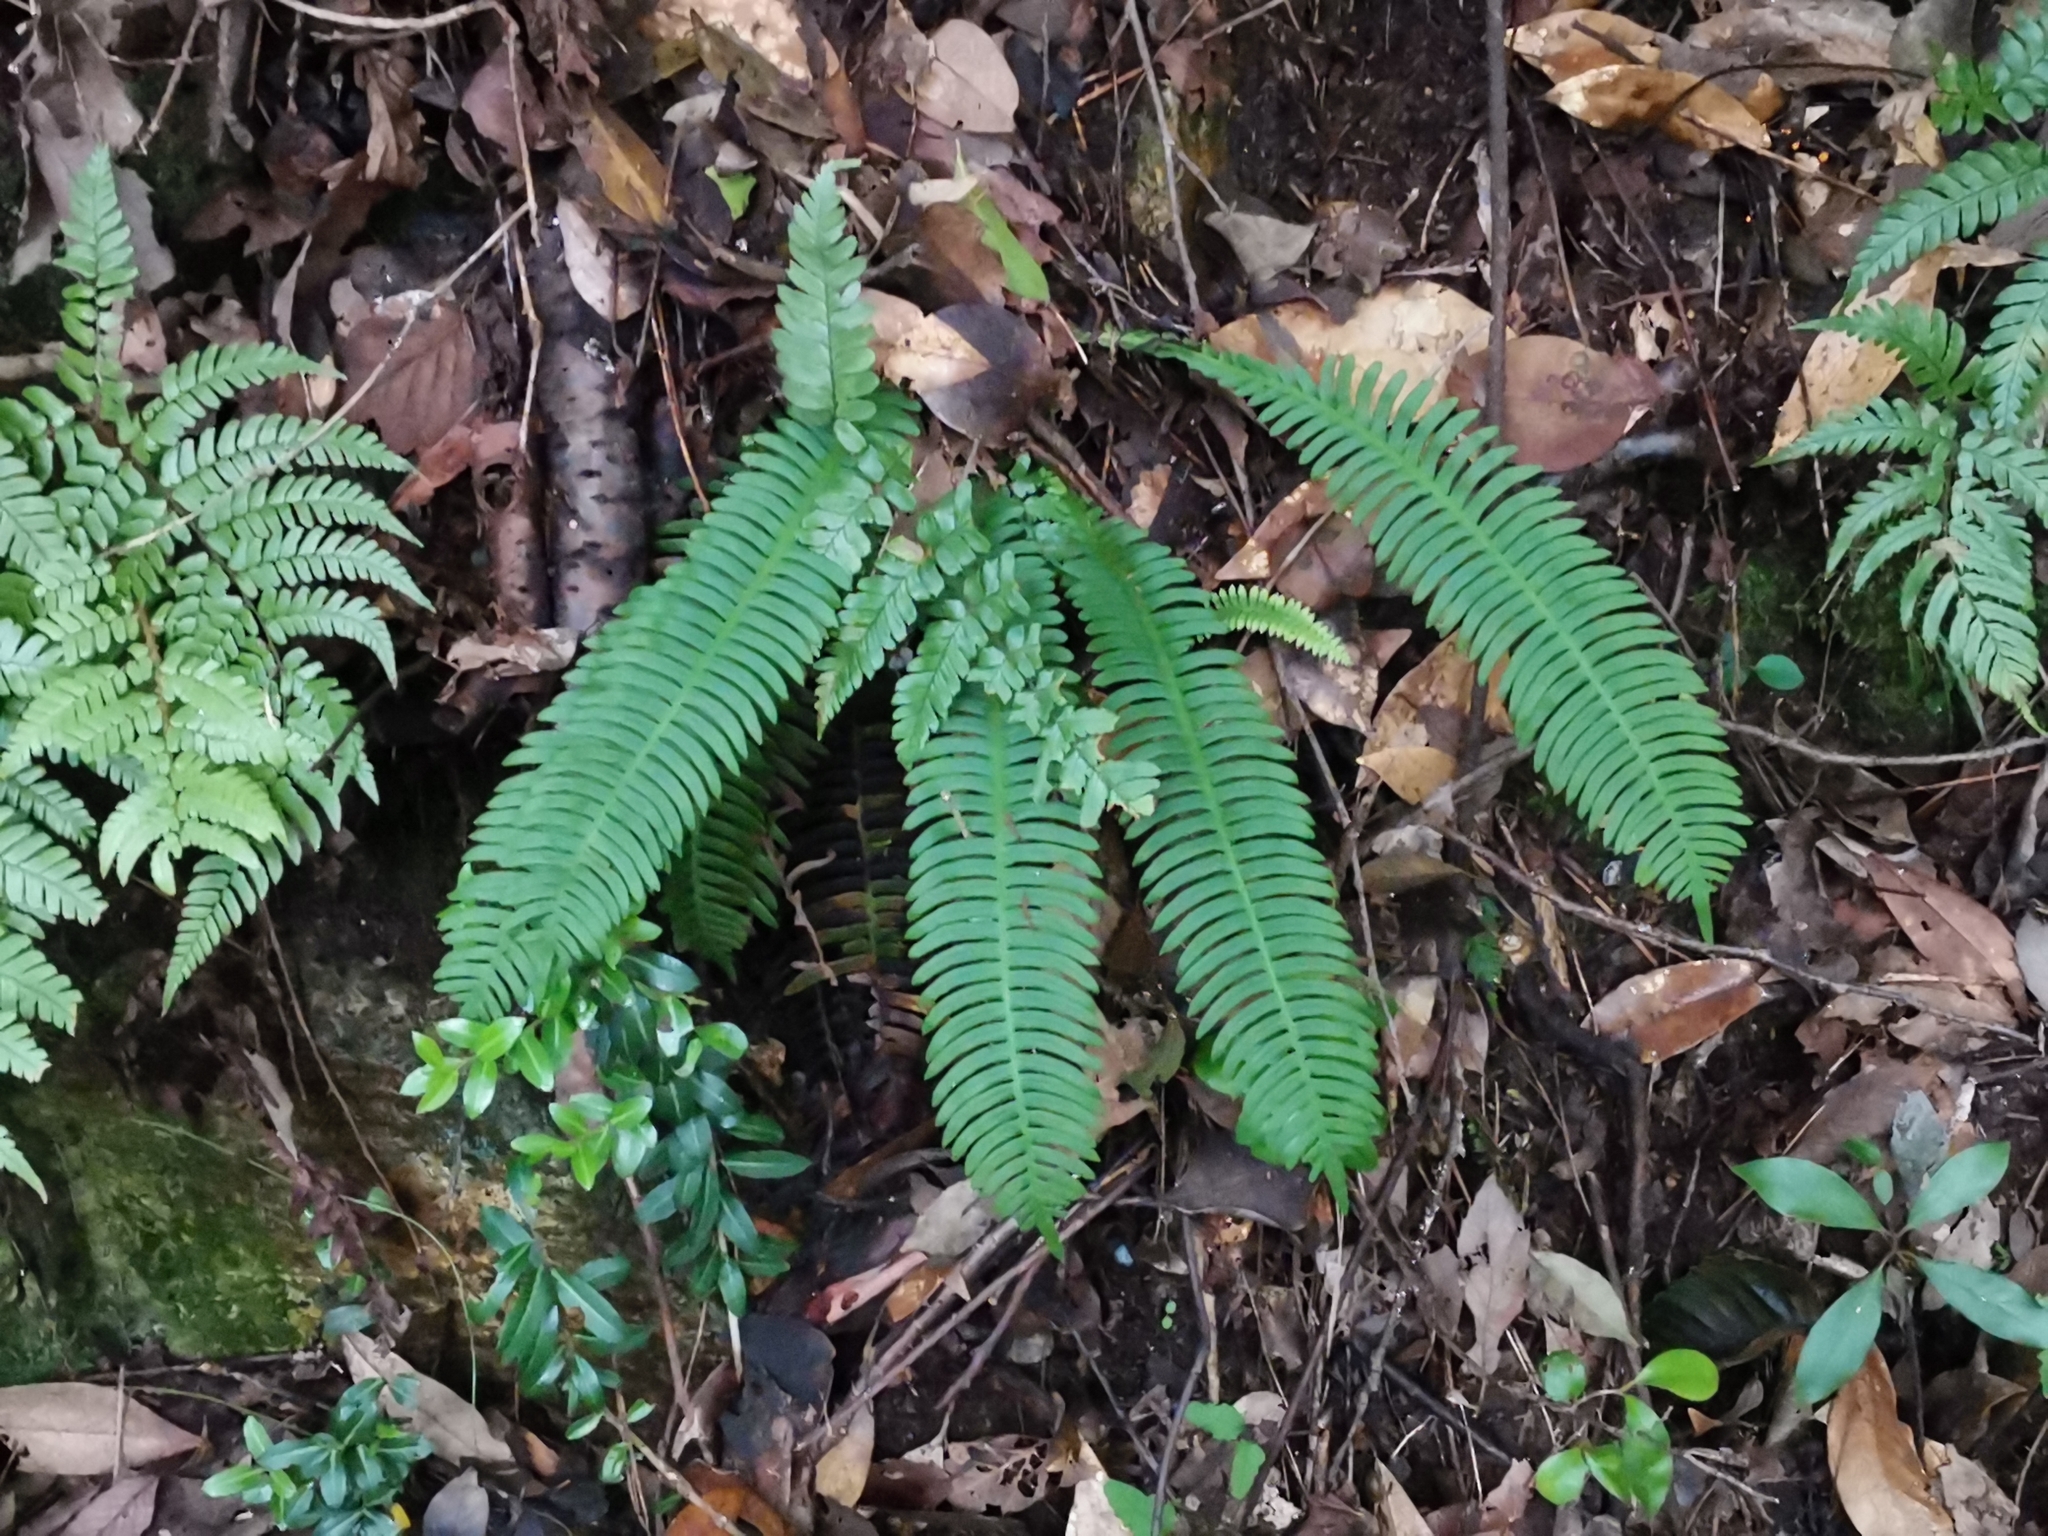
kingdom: Plantae
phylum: Tracheophyta
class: Polypodiopsida
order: Polypodiales
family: Blechnaceae
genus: Spicantopsis
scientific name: Spicantopsis niponica
